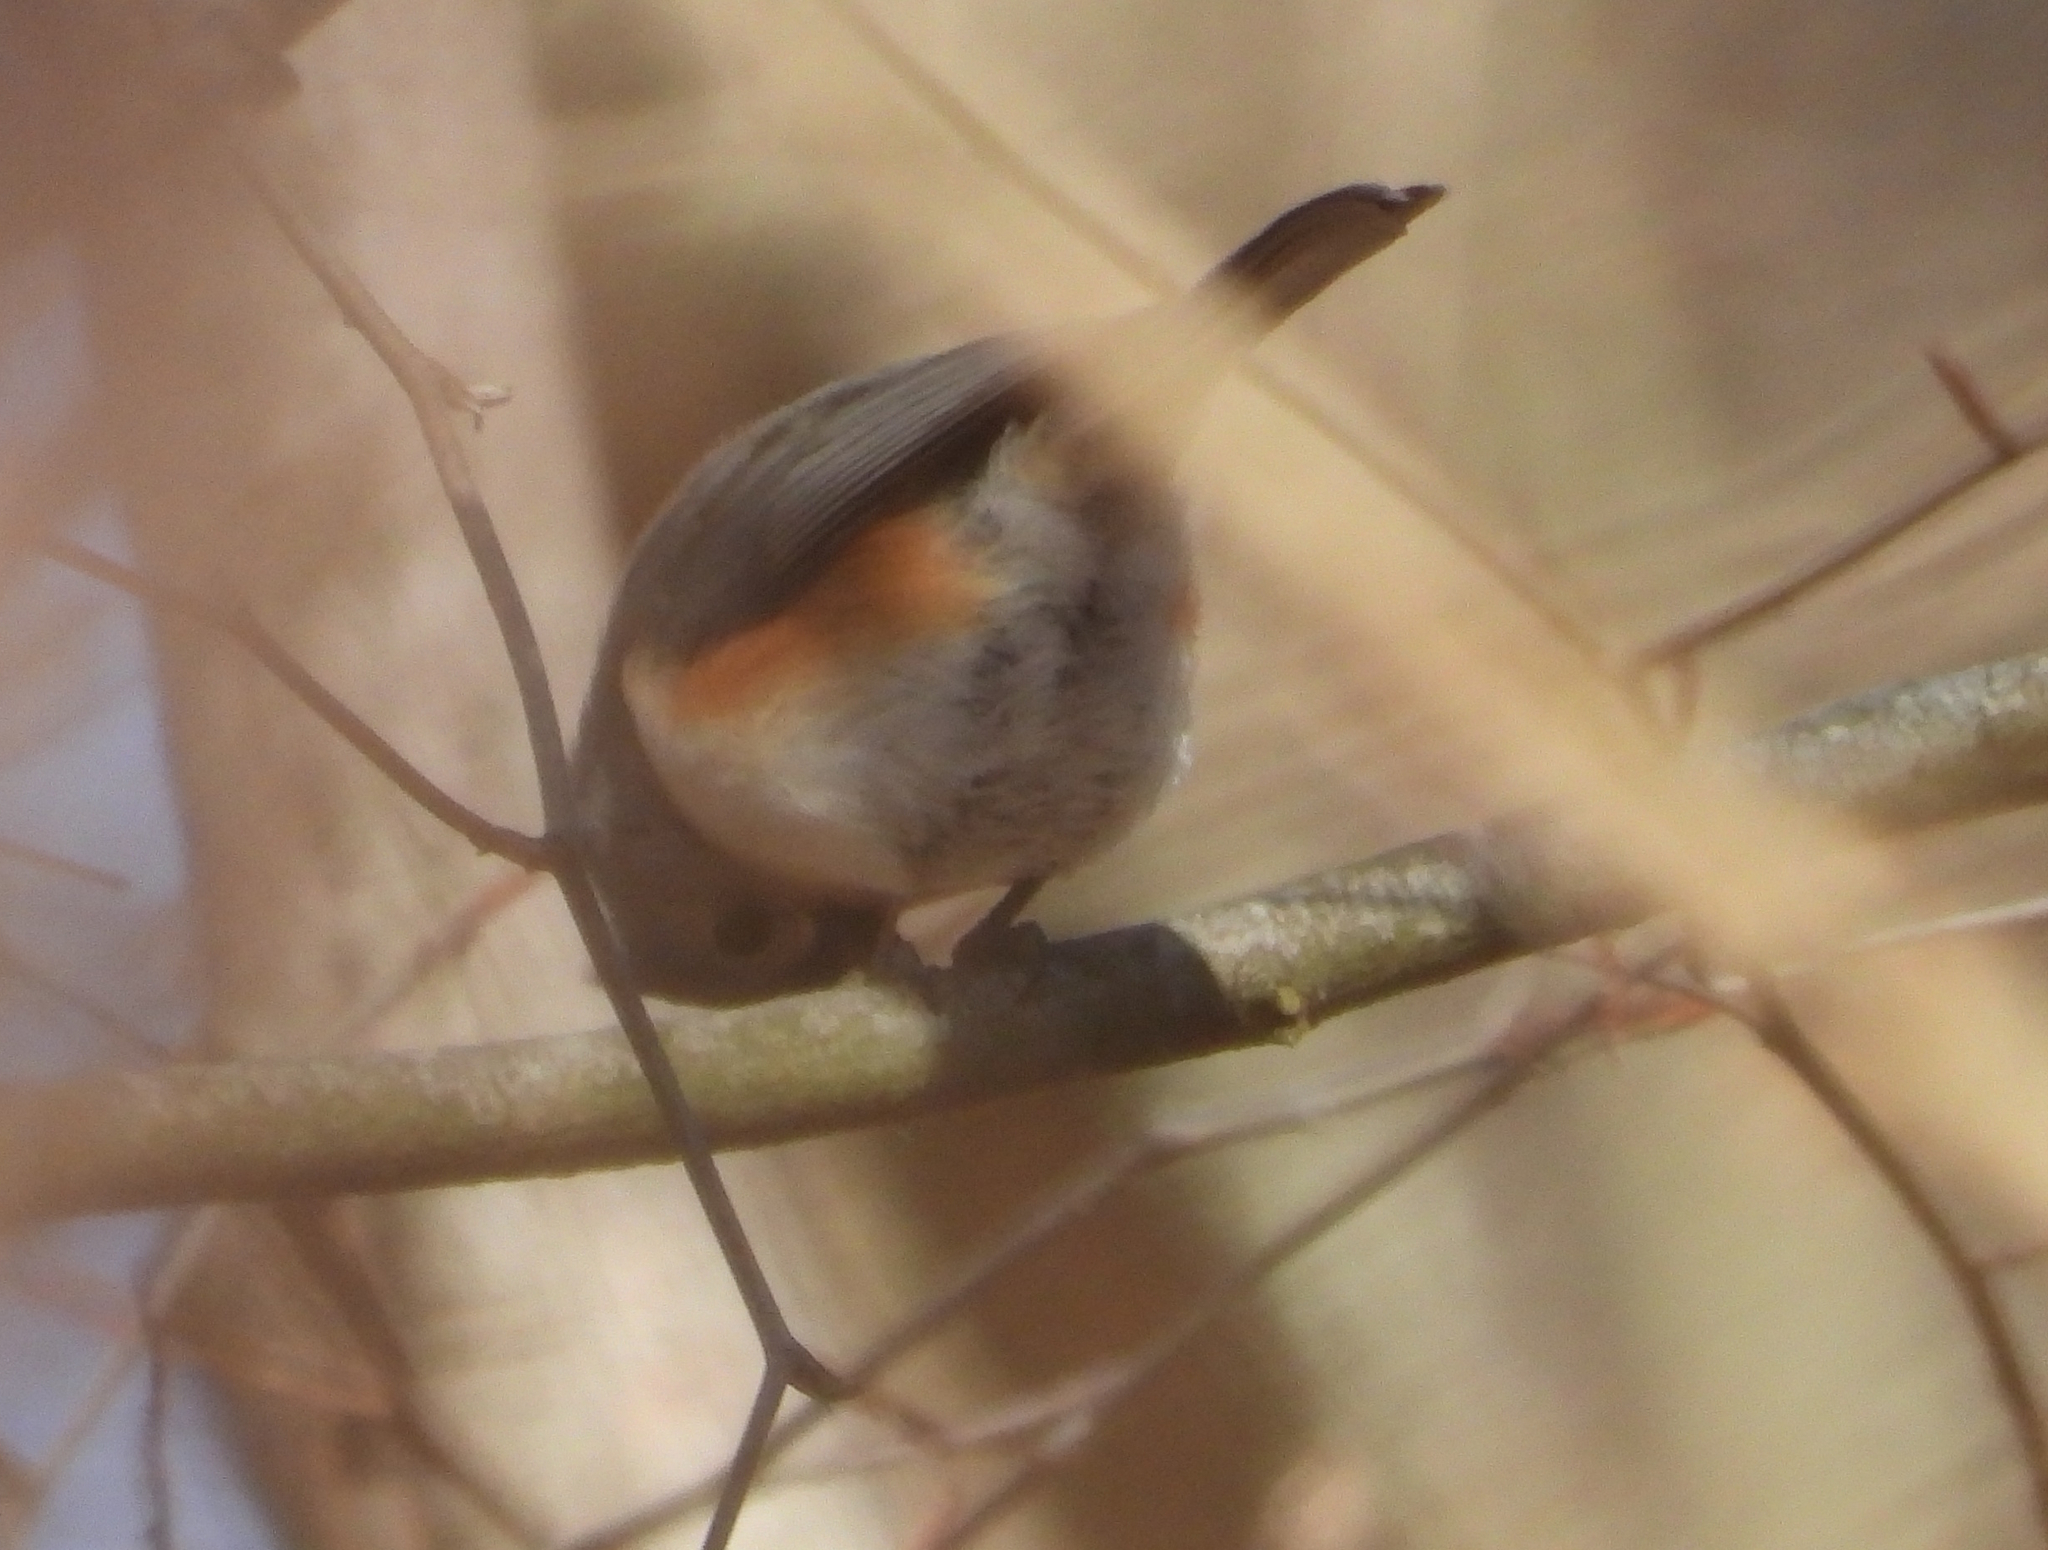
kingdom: Animalia
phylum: Chordata
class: Aves
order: Passeriformes
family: Paridae
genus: Baeolophus
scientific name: Baeolophus bicolor
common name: Tufted titmouse
